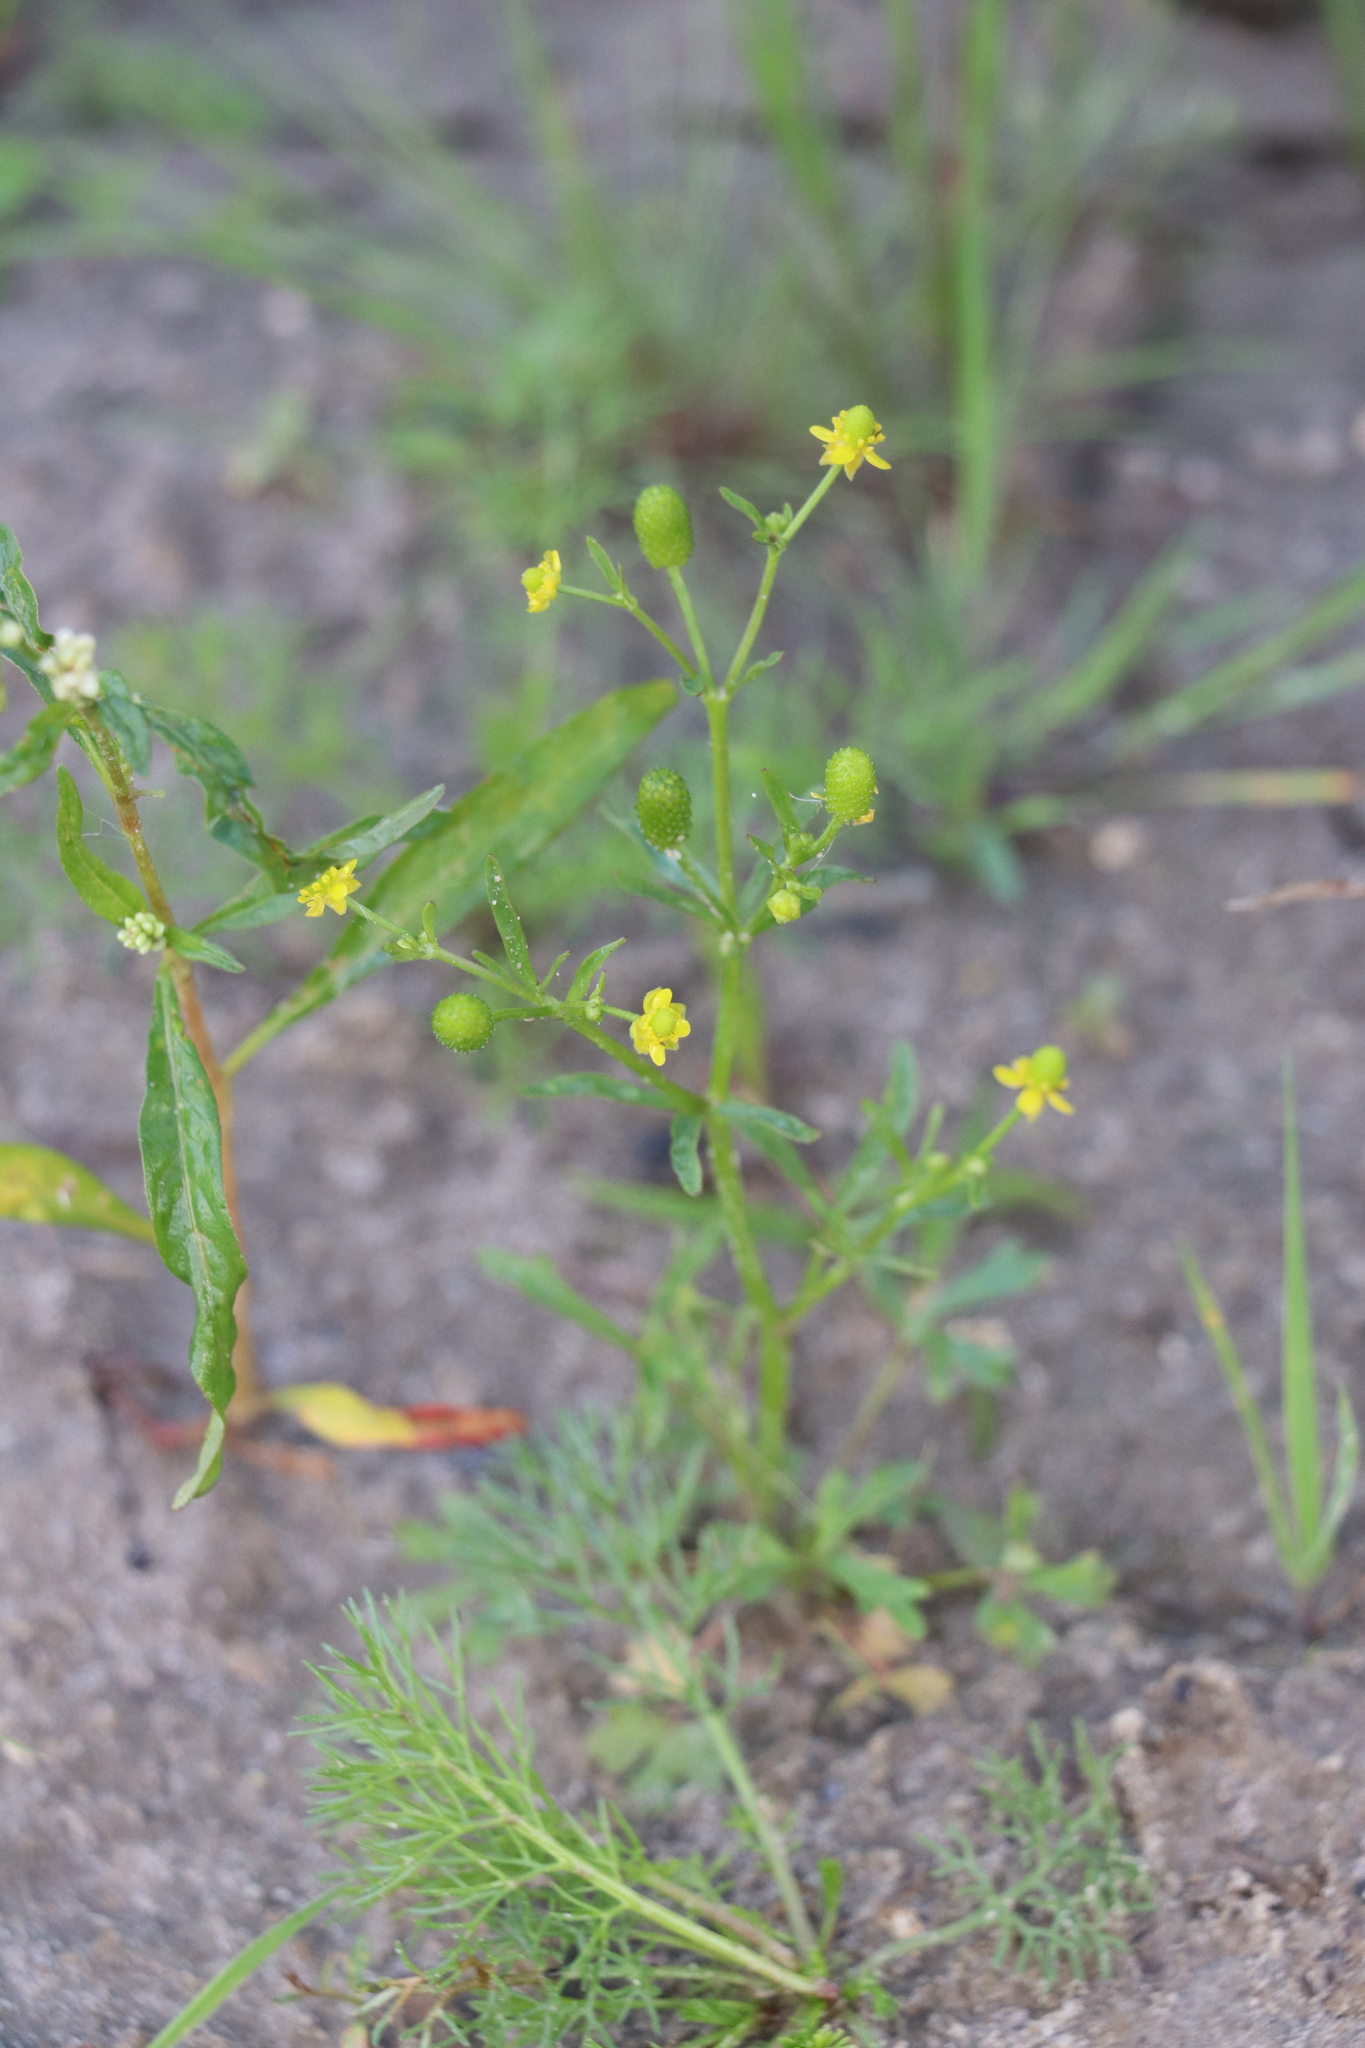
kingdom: Plantae
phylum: Tracheophyta
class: Magnoliopsida
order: Ranunculales
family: Ranunculaceae
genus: Ranunculus
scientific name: Ranunculus sceleratus
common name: Celery-leaved buttercup
